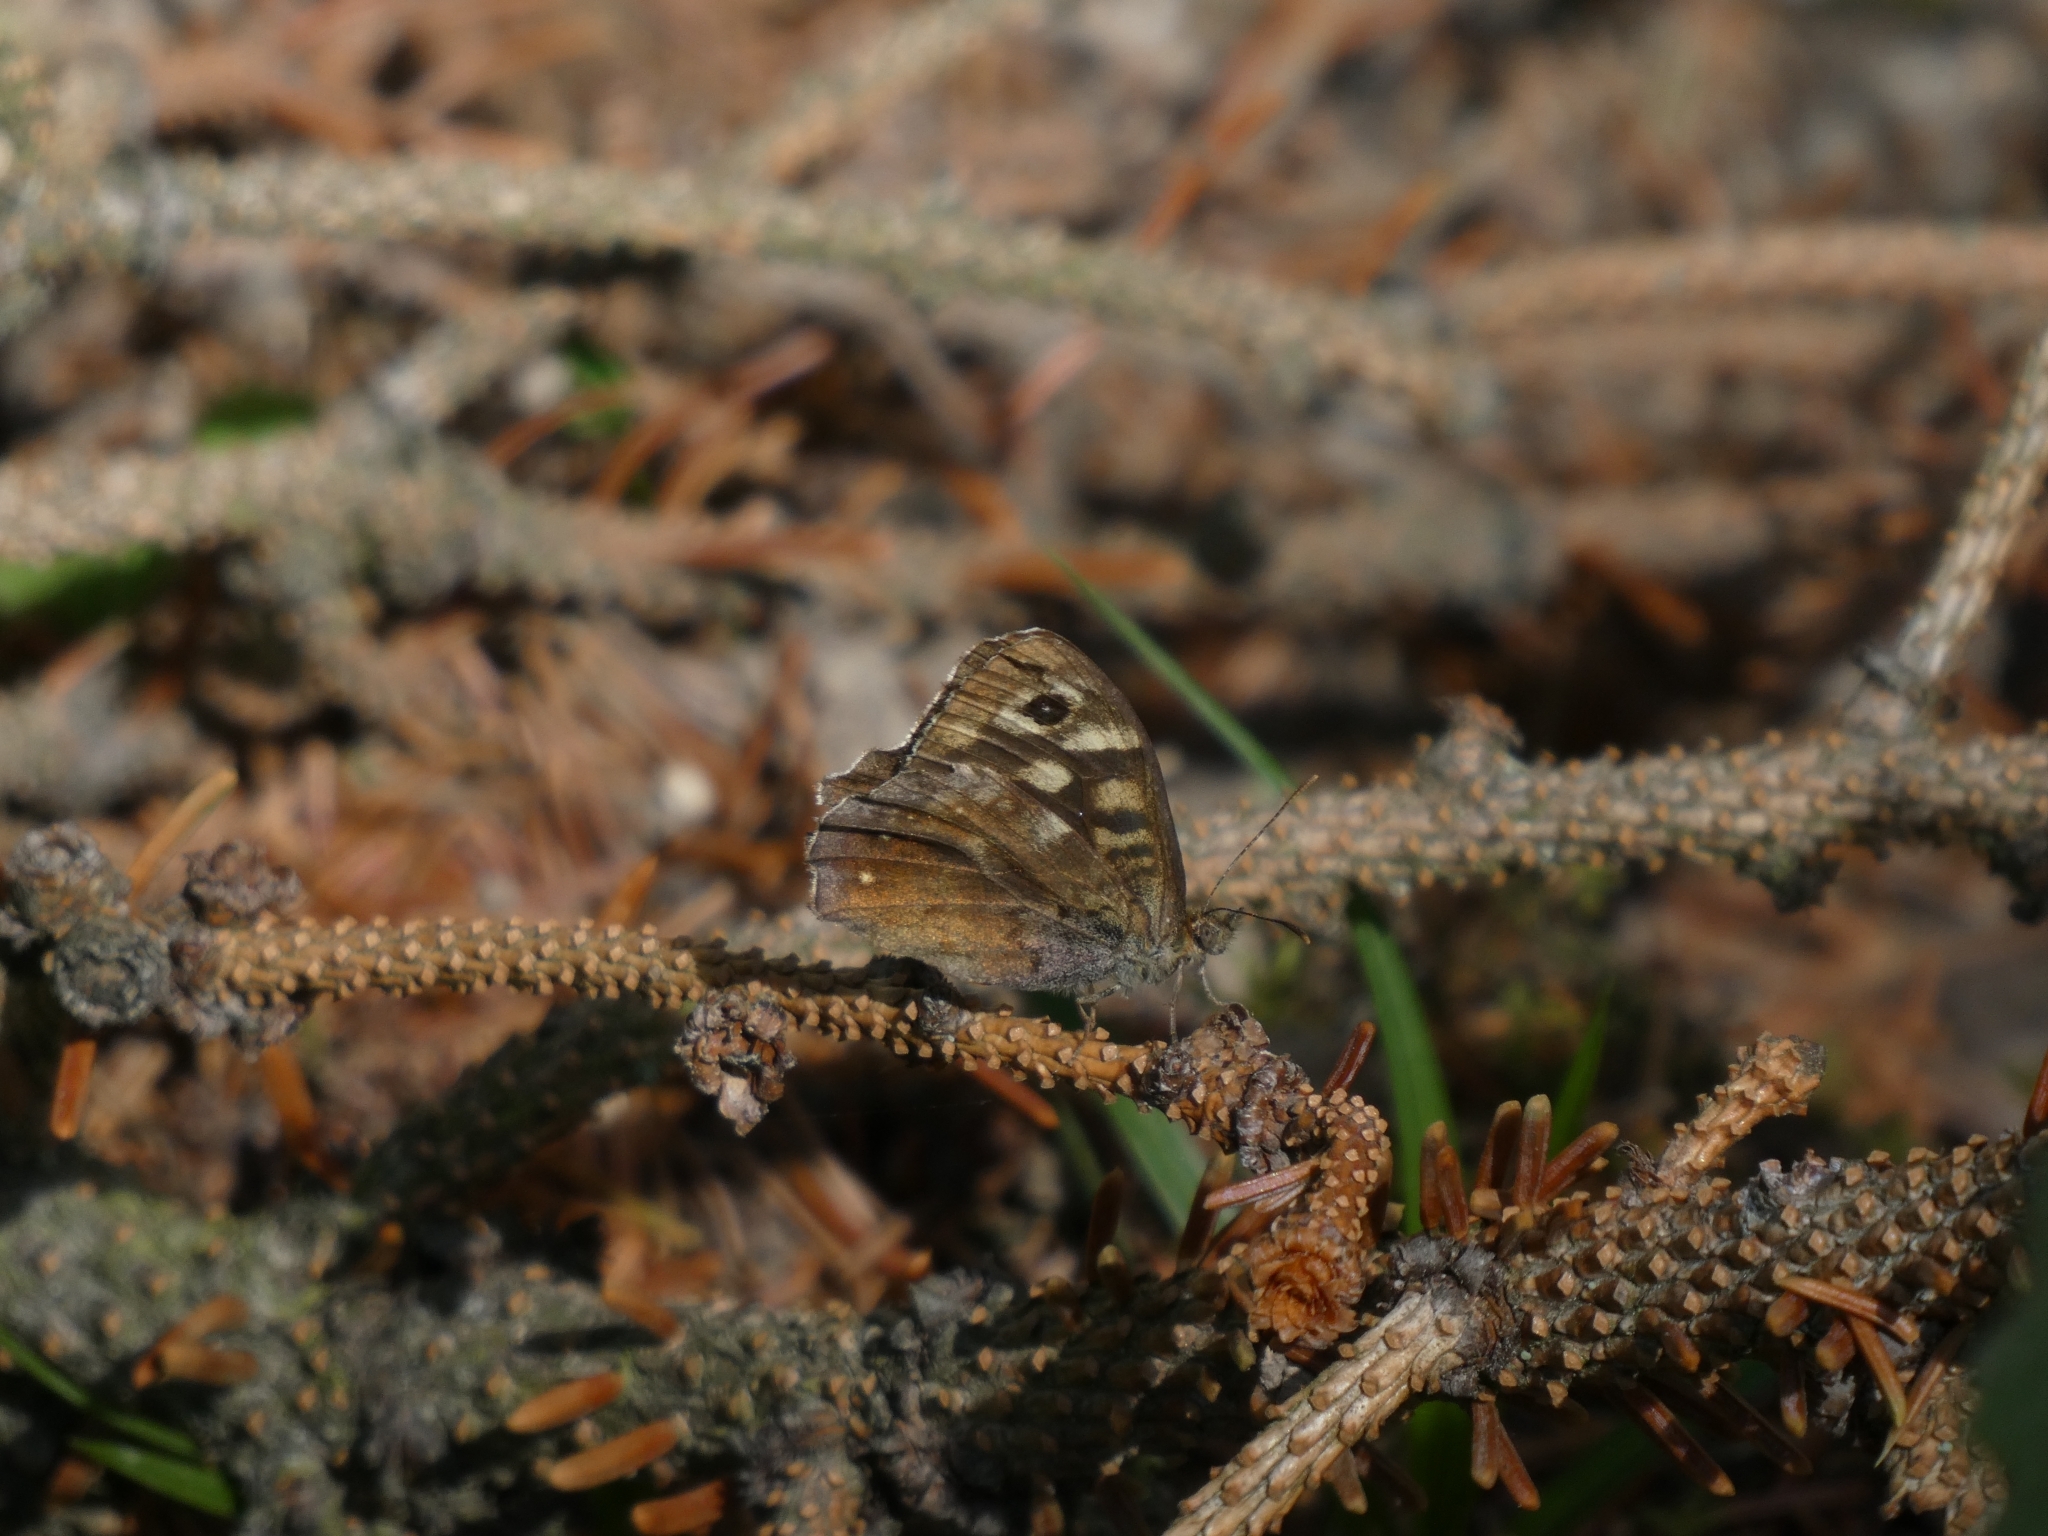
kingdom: Animalia
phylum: Arthropoda
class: Insecta
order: Lepidoptera
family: Nymphalidae
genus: Pararge
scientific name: Pararge aegeria
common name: Speckled wood
